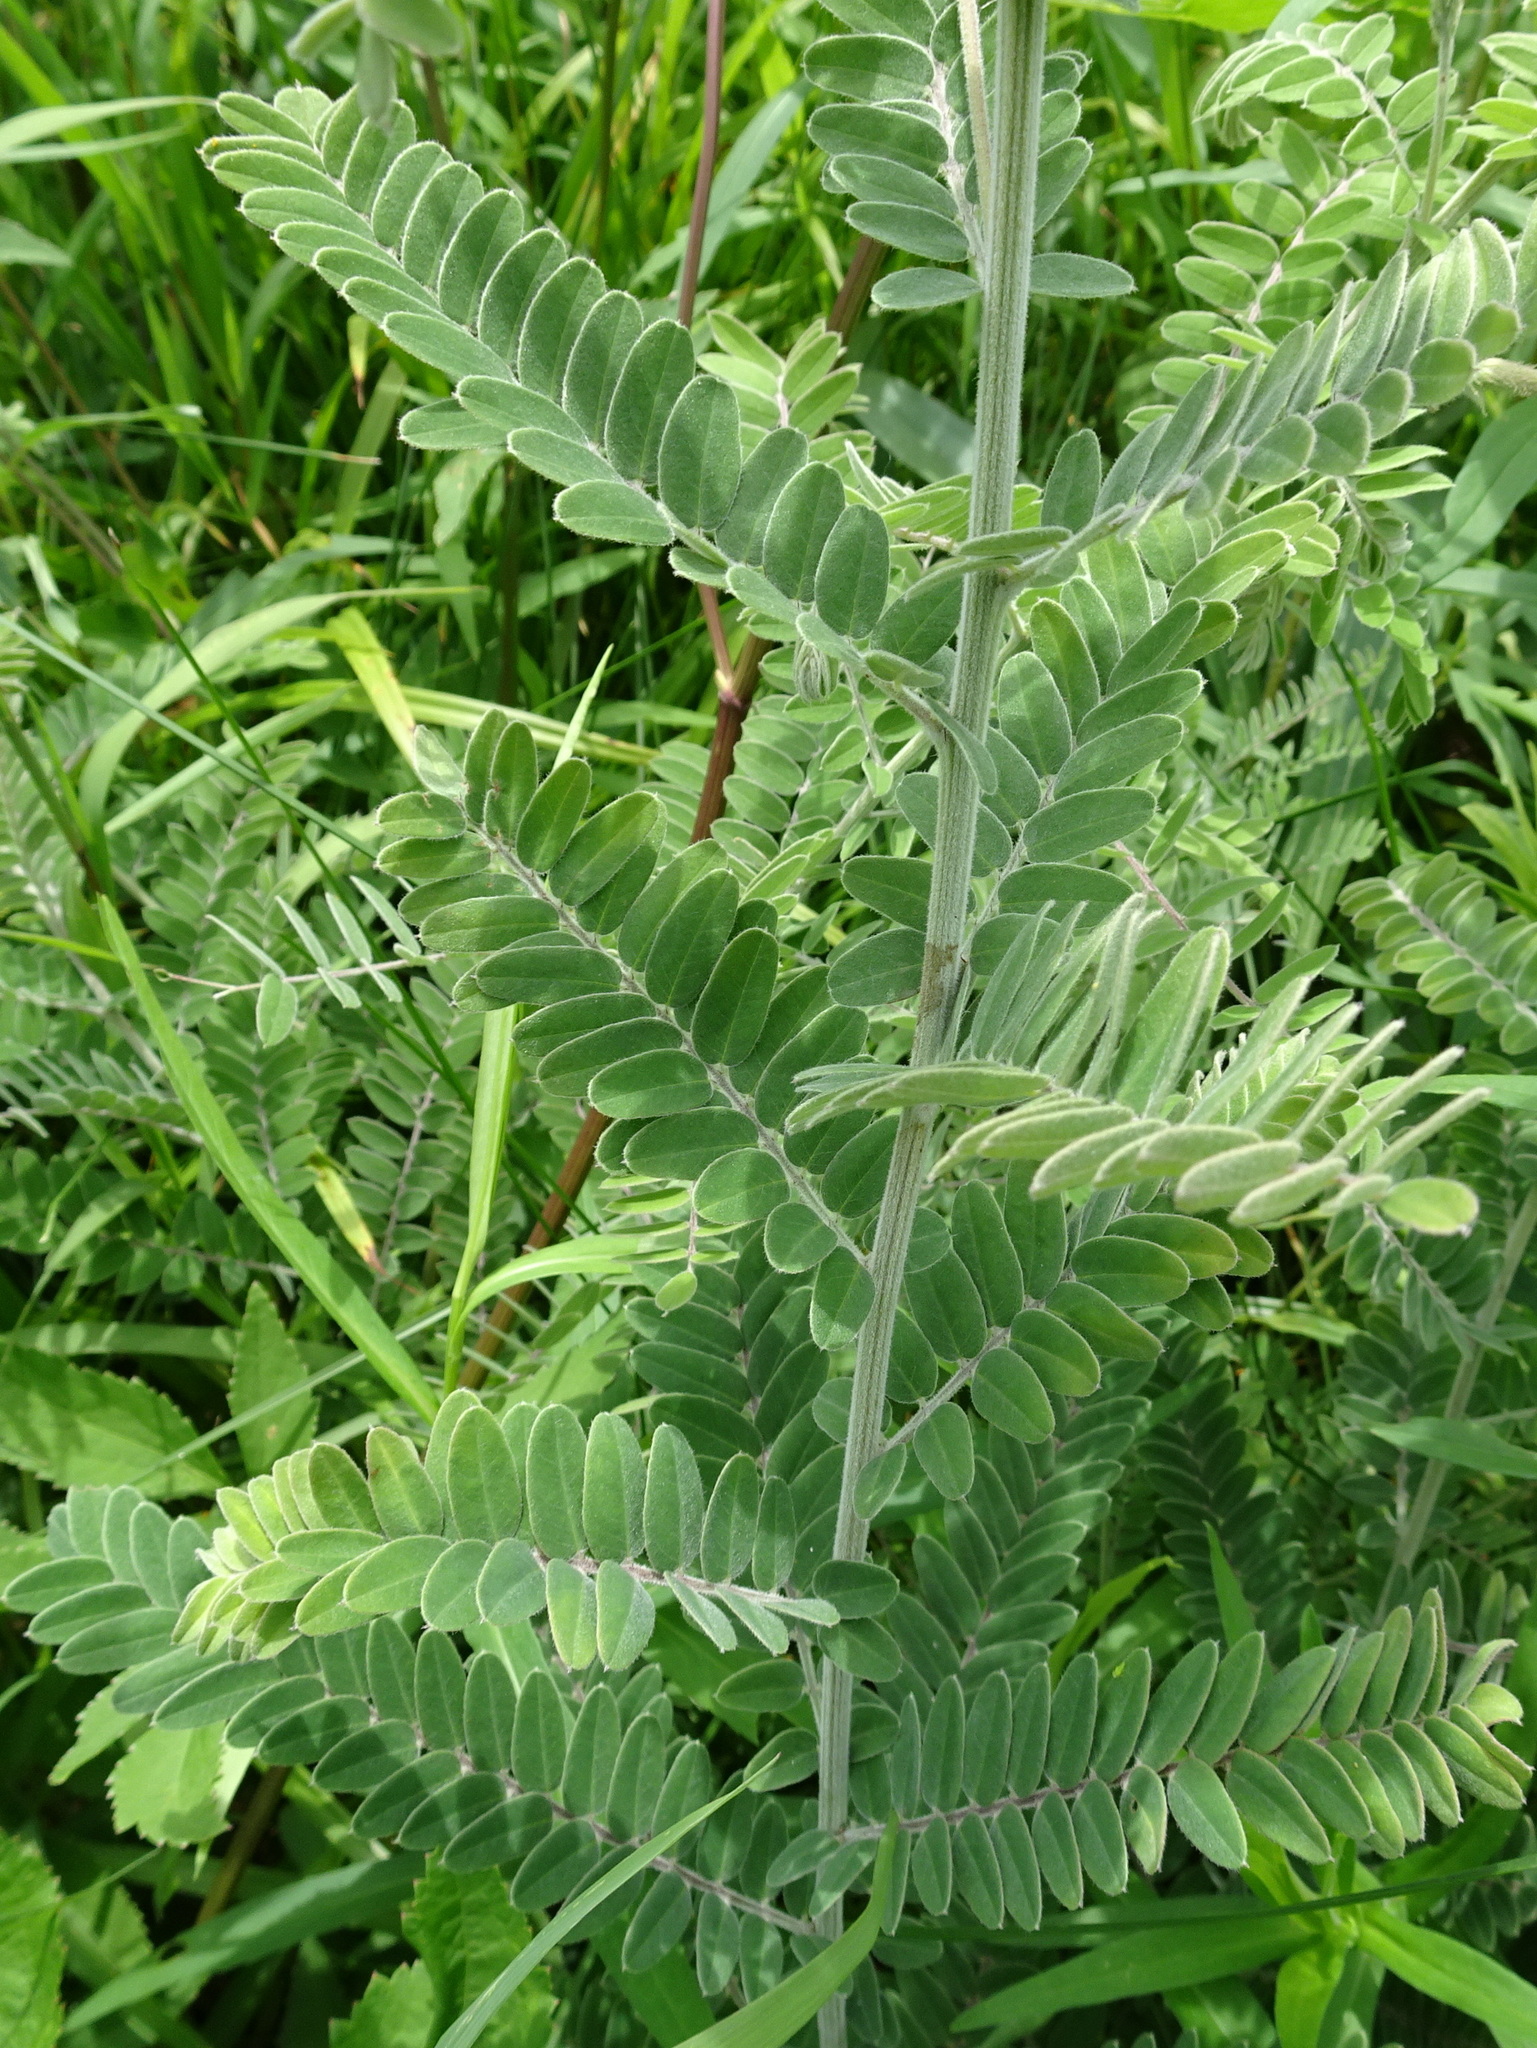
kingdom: Plantae
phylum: Tracheophyta
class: Magnoliopsida
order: Fabales
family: Fabaceae
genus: Amorpha
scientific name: Amorpha canescens
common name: Leadplant
